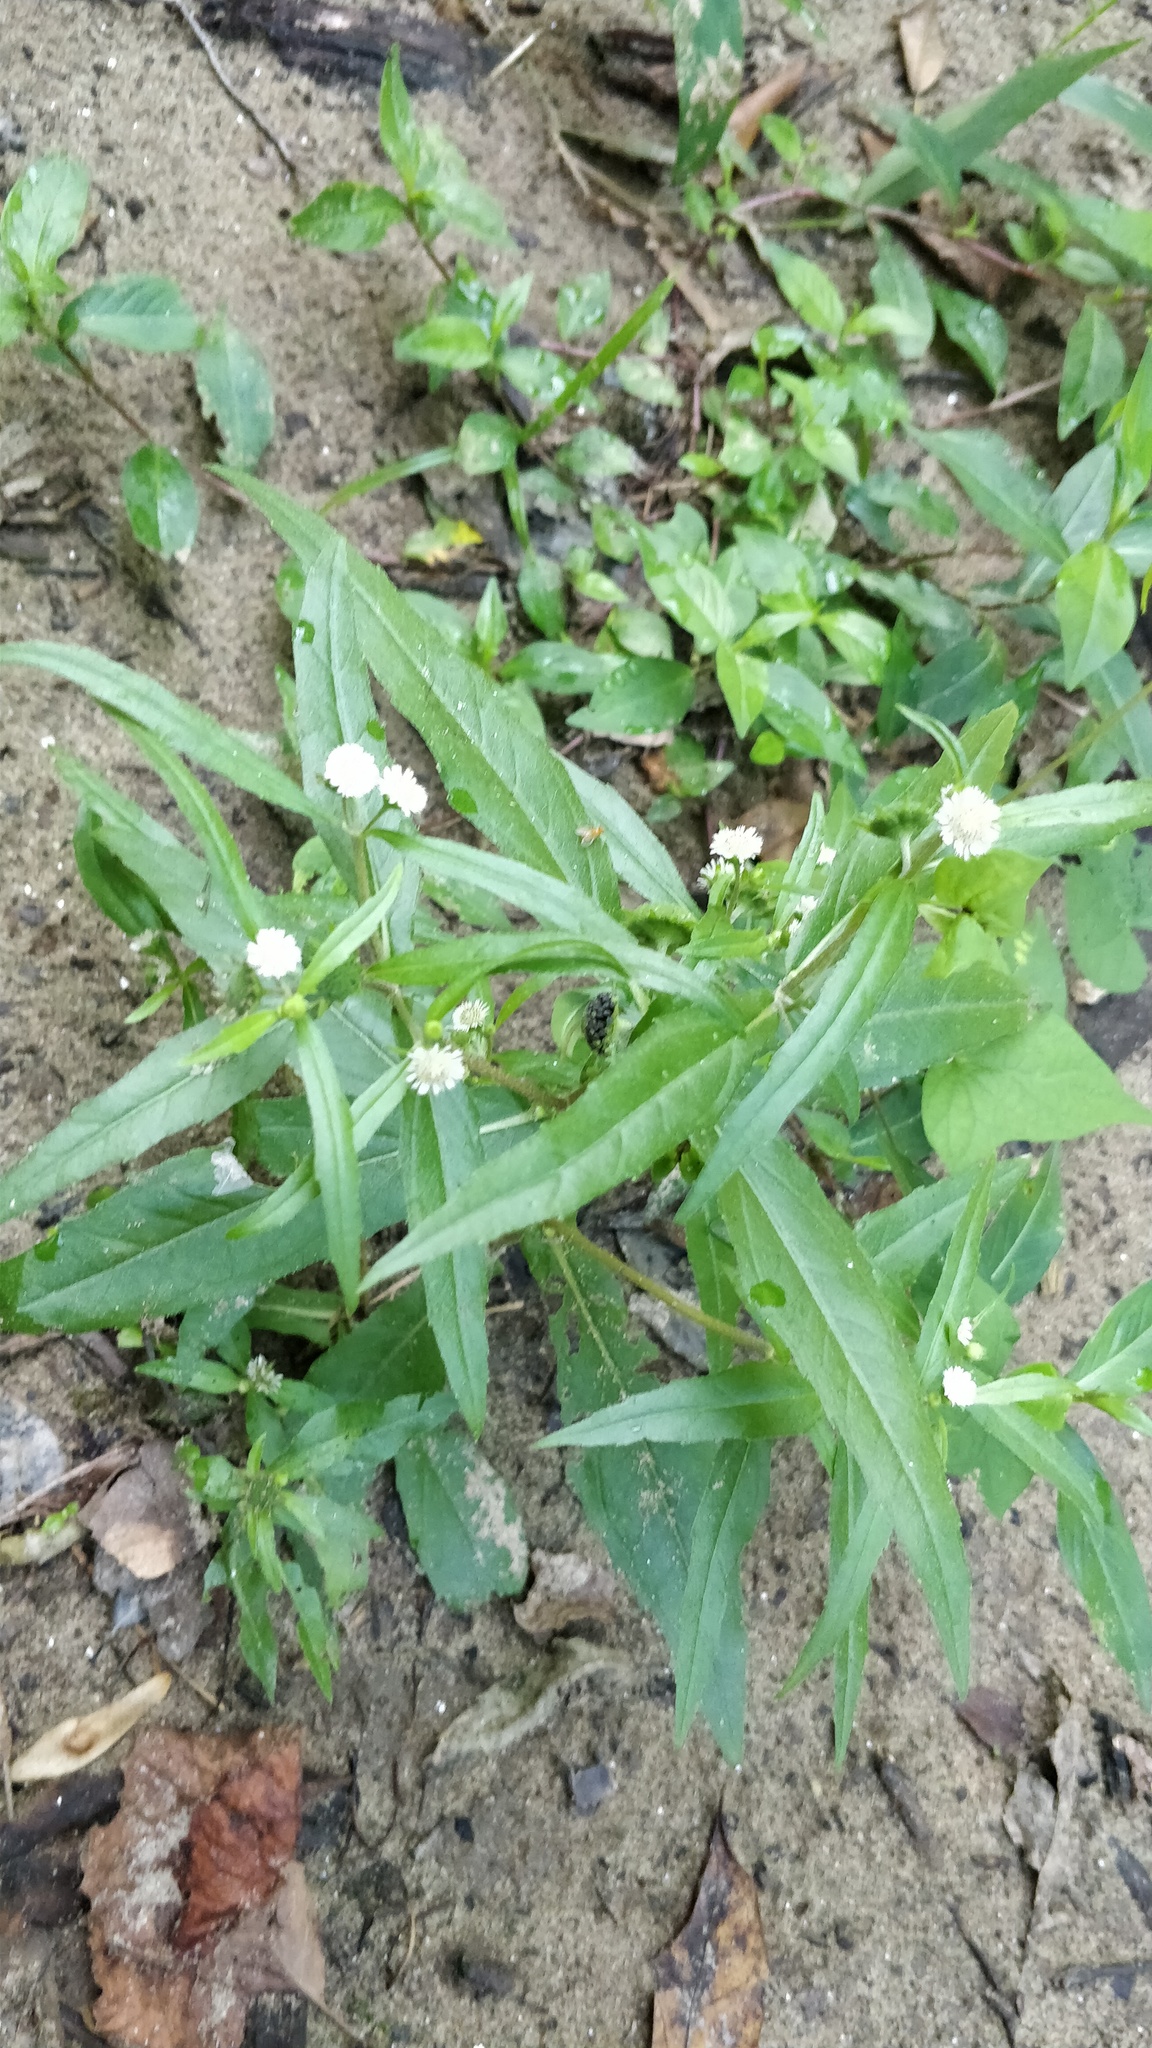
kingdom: Plantae
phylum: Tracheophyta
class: Magnoliopsida
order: Asterales
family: Asteraceae
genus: Eclipta
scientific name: Eclipta prostrata
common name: False daisy
